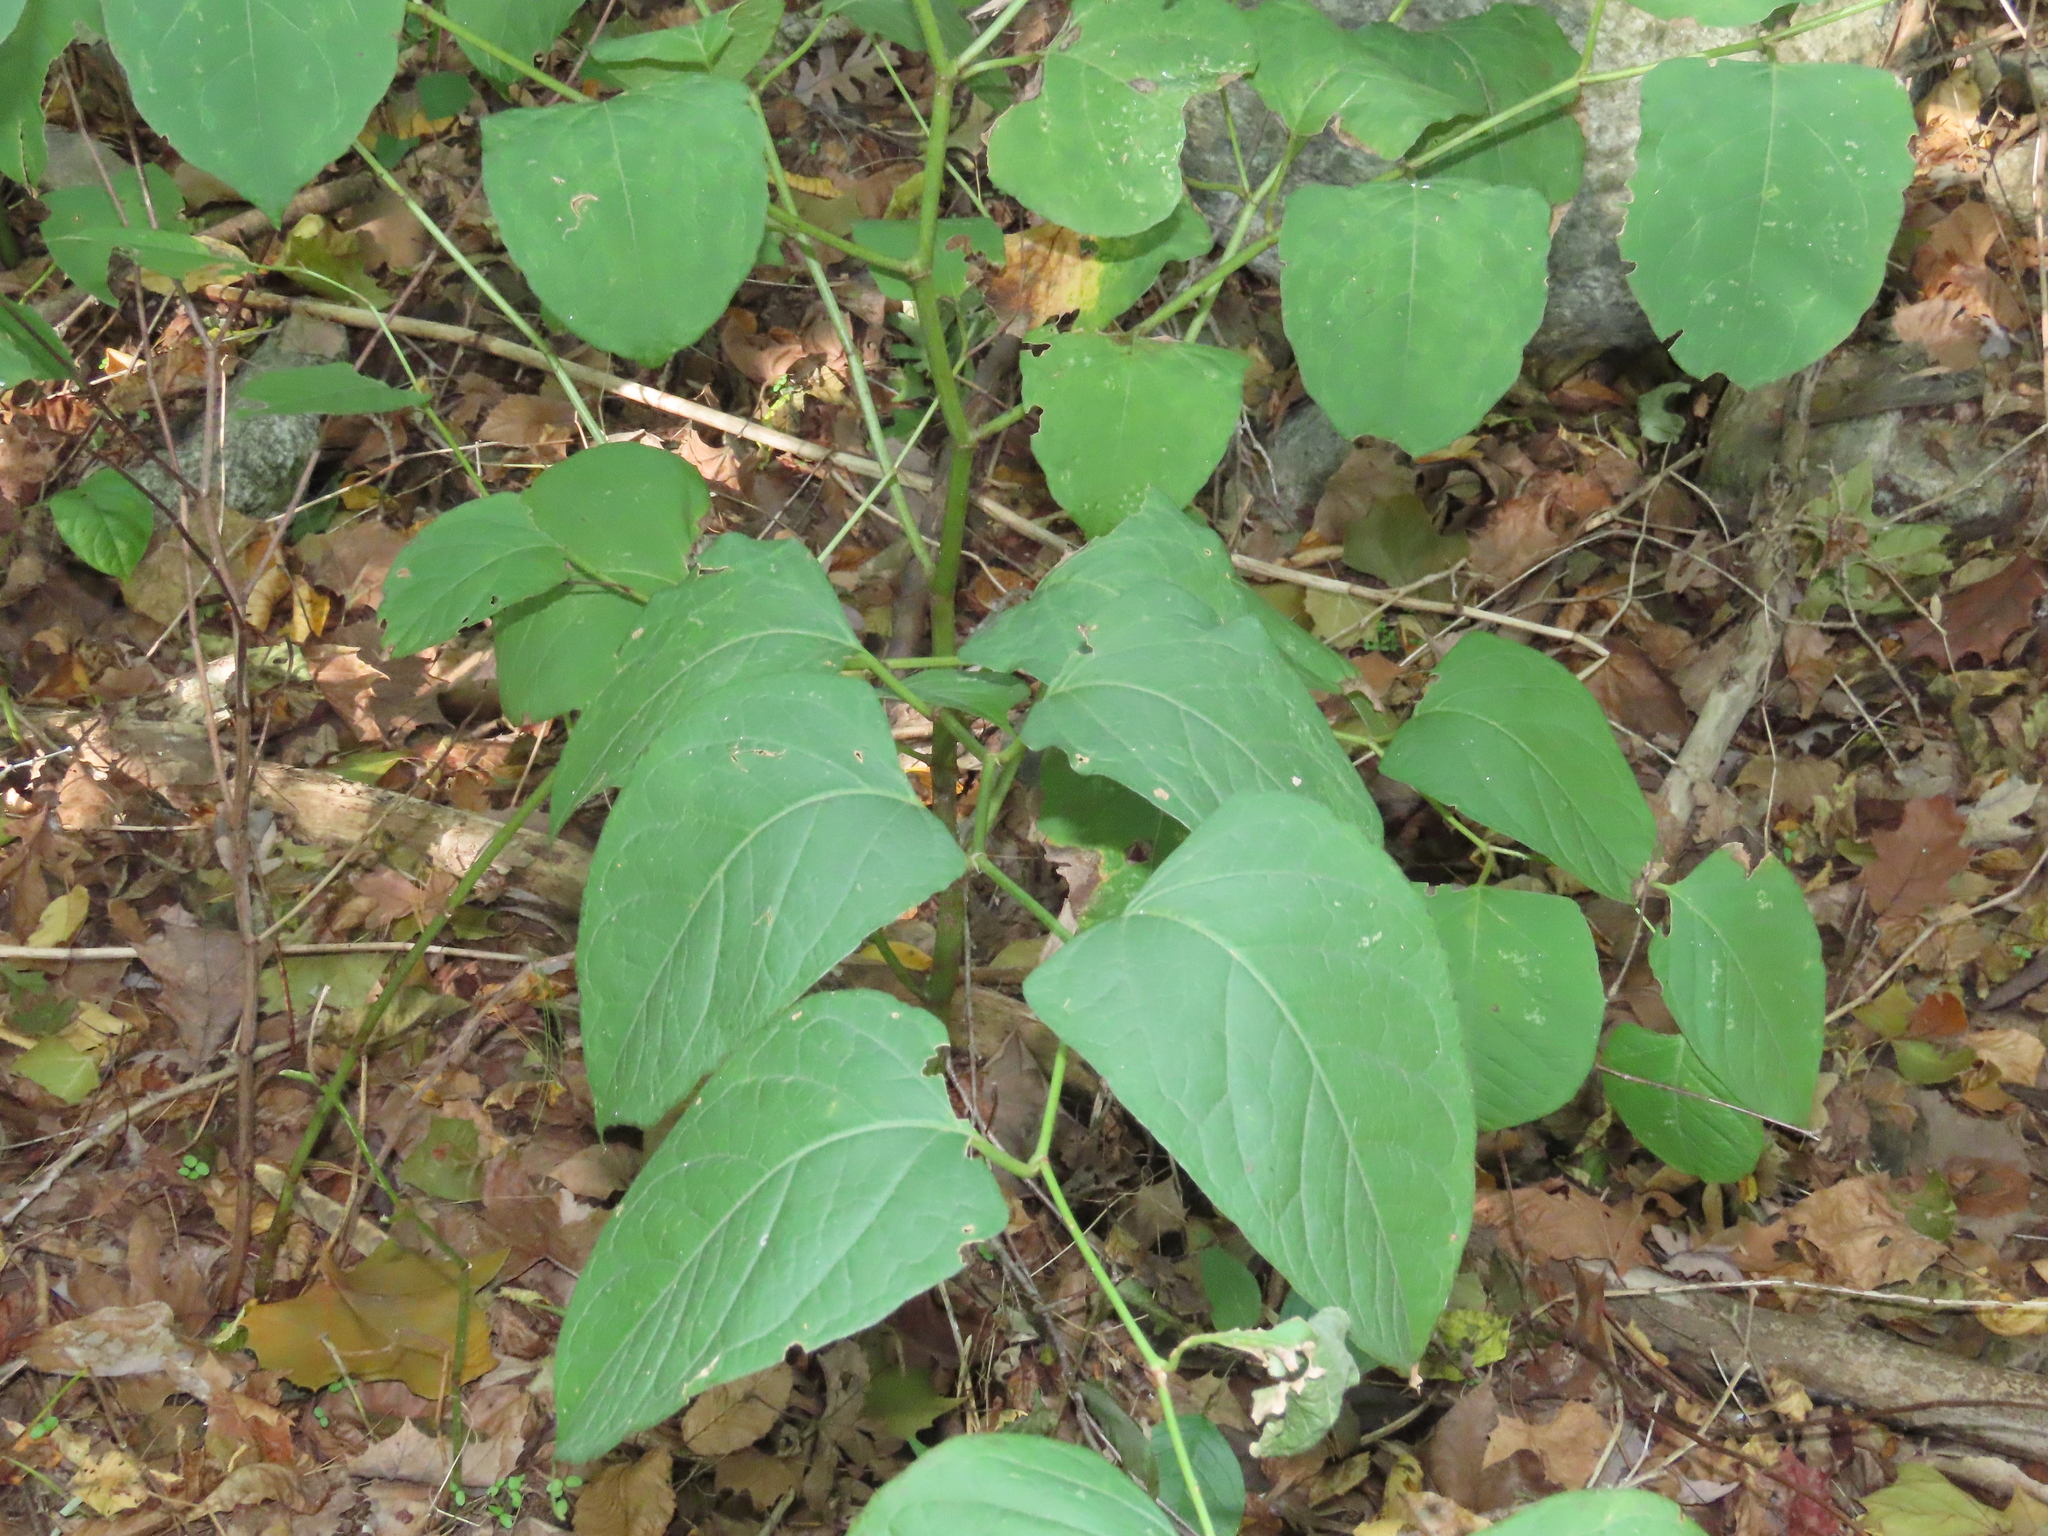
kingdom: Plantae
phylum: Tracheophyta
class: Magnoliopsida
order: Caryophyllales
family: Polygonaceae
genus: Reynoutria
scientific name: Reynoutria japonica
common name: Japanese knotweed
